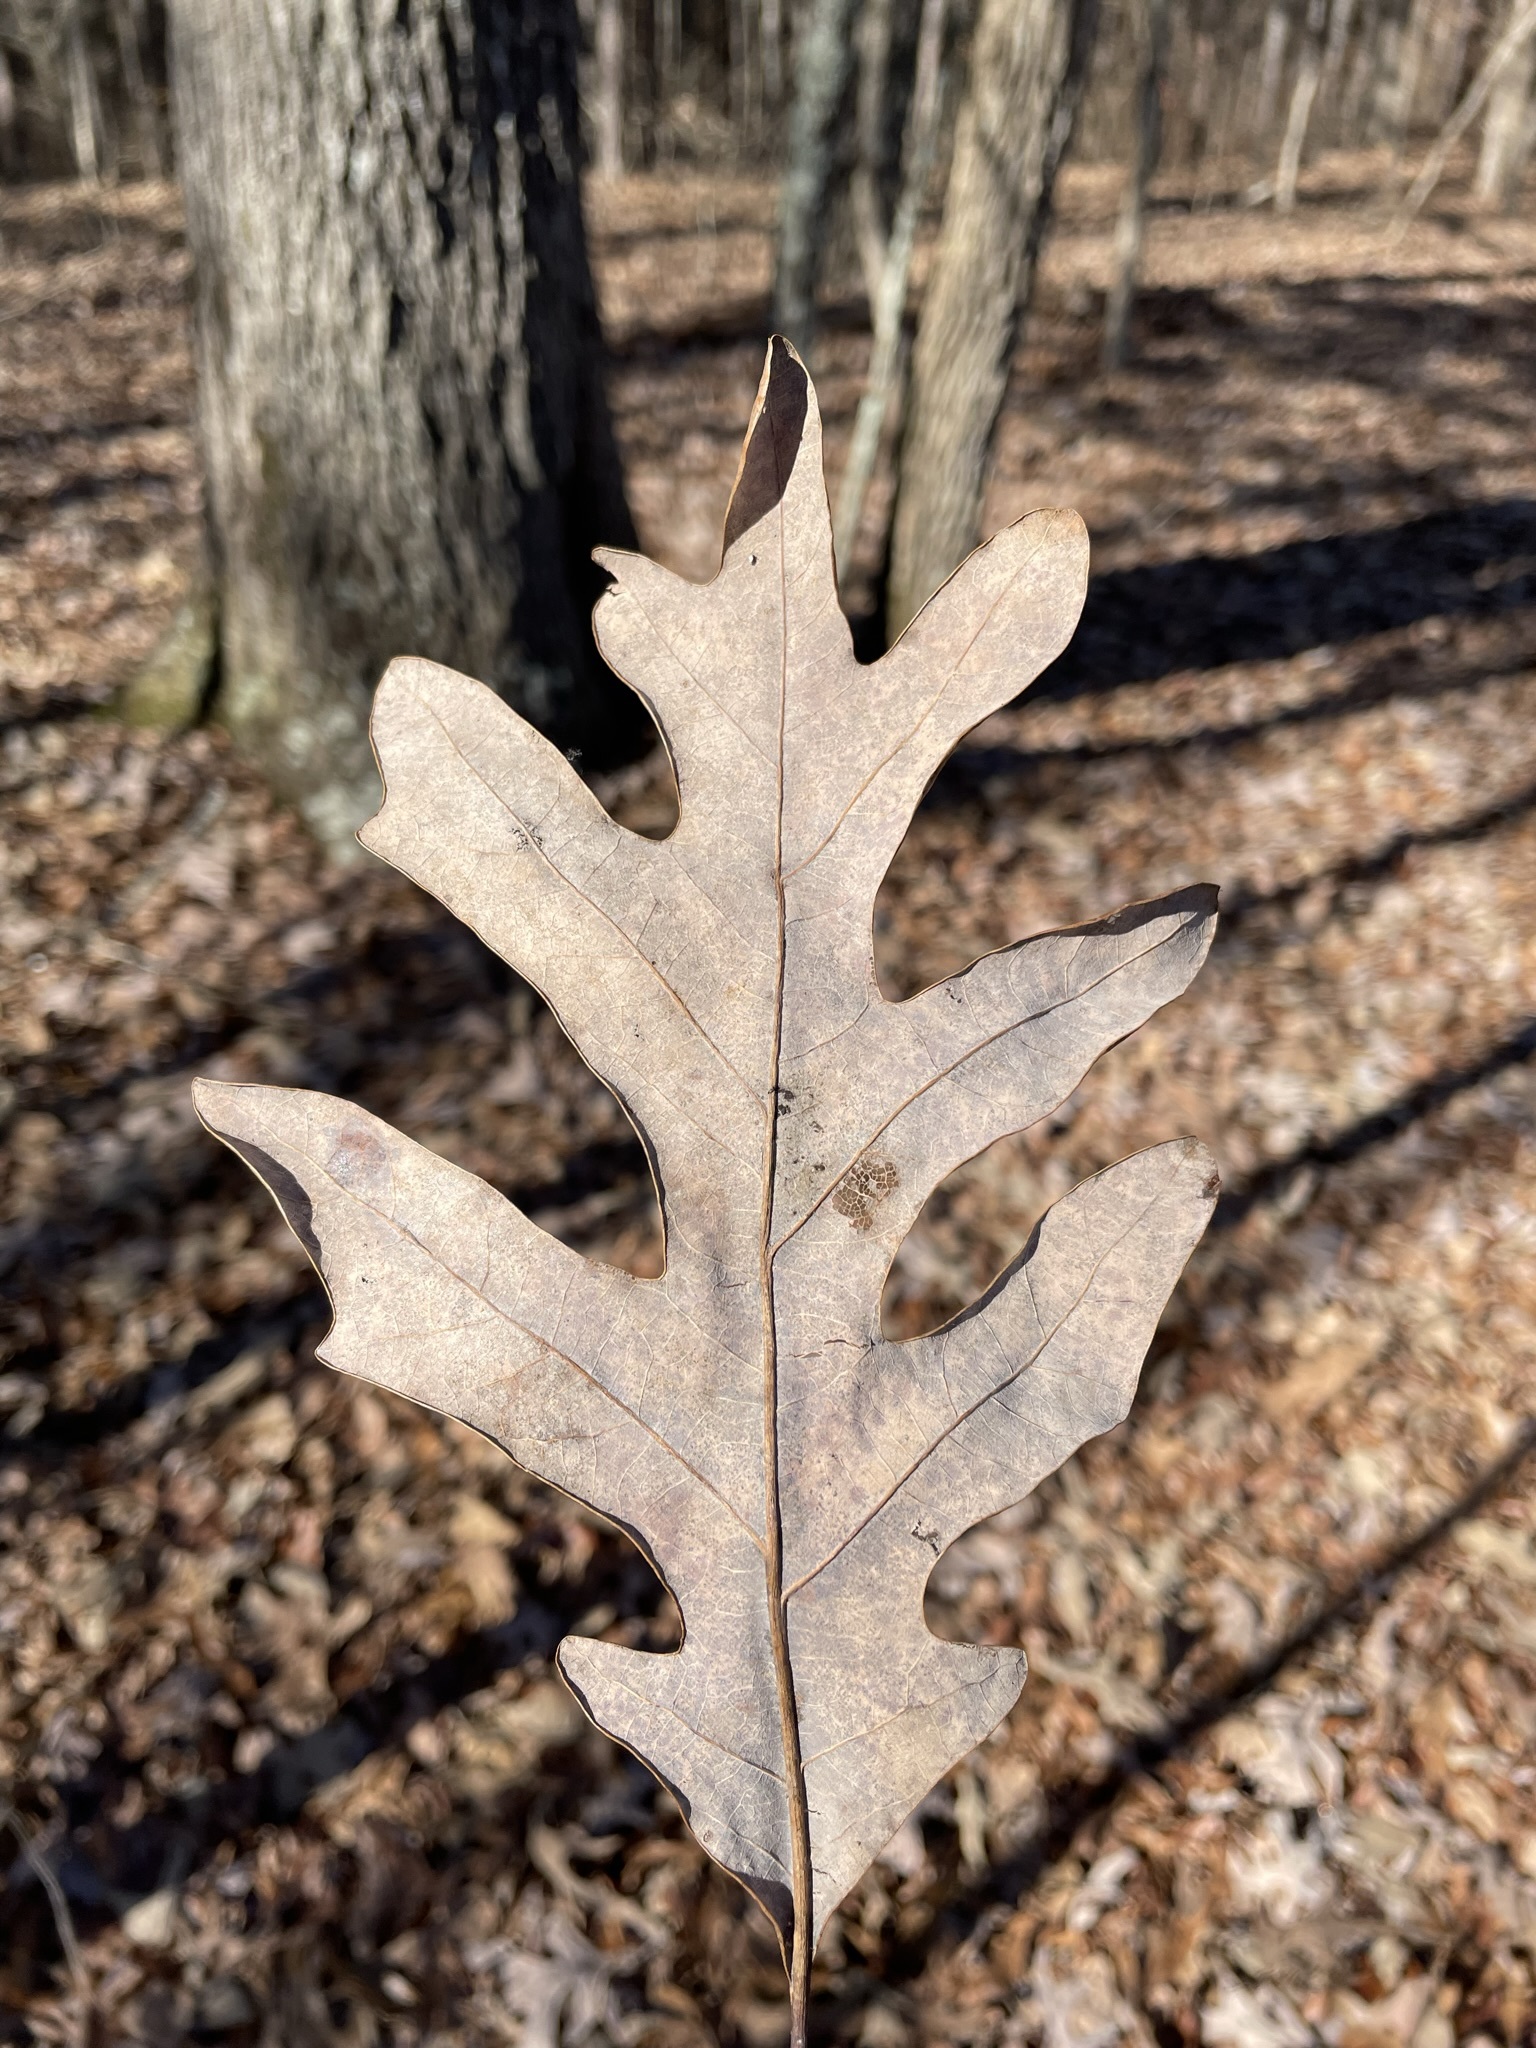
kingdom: Plantae
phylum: Tracheophyta
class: Magnoliopsida
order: Fagales
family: Fagaceae
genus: Quercus
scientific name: Quercus alba
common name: White oak
